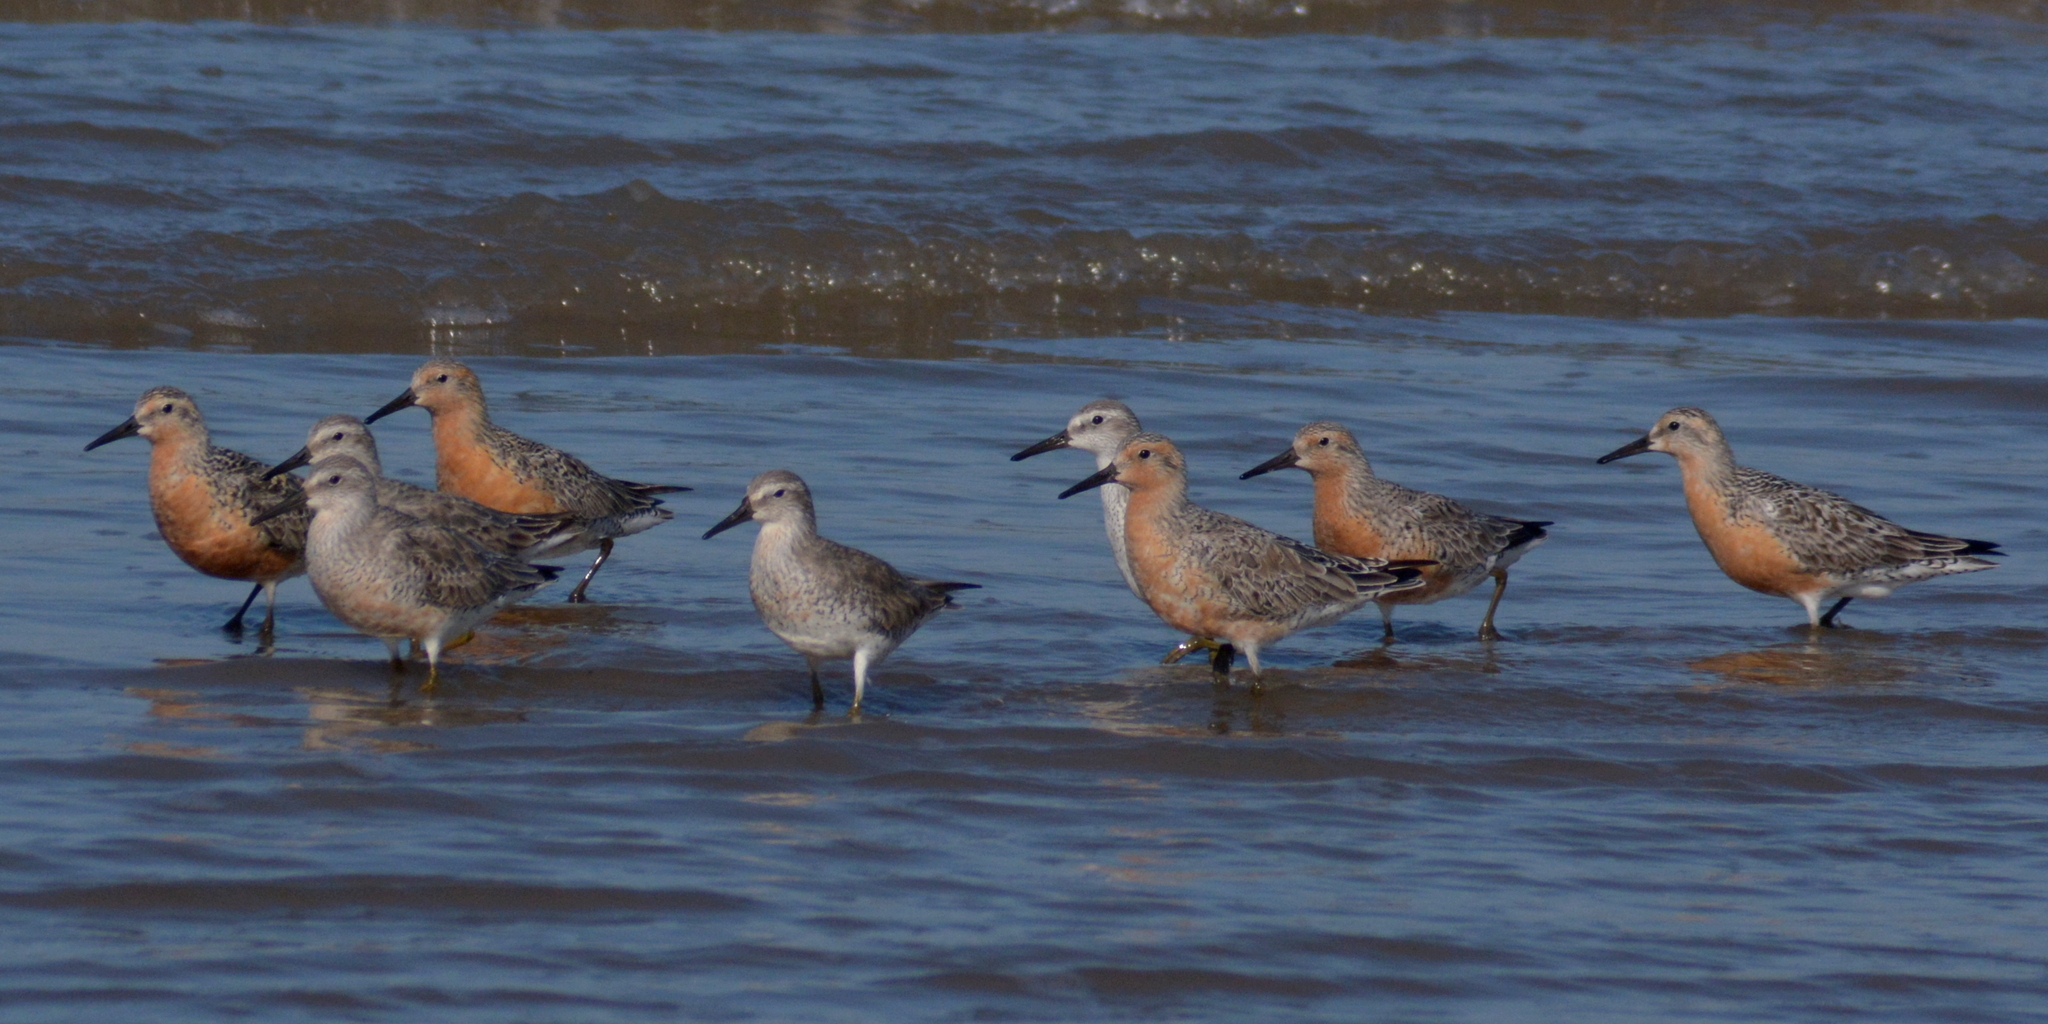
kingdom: Animalia
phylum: Chordata
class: Aves
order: Charadriiformes
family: Scolopacidae
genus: Calidris
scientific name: Calidris canutus
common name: Red knot
